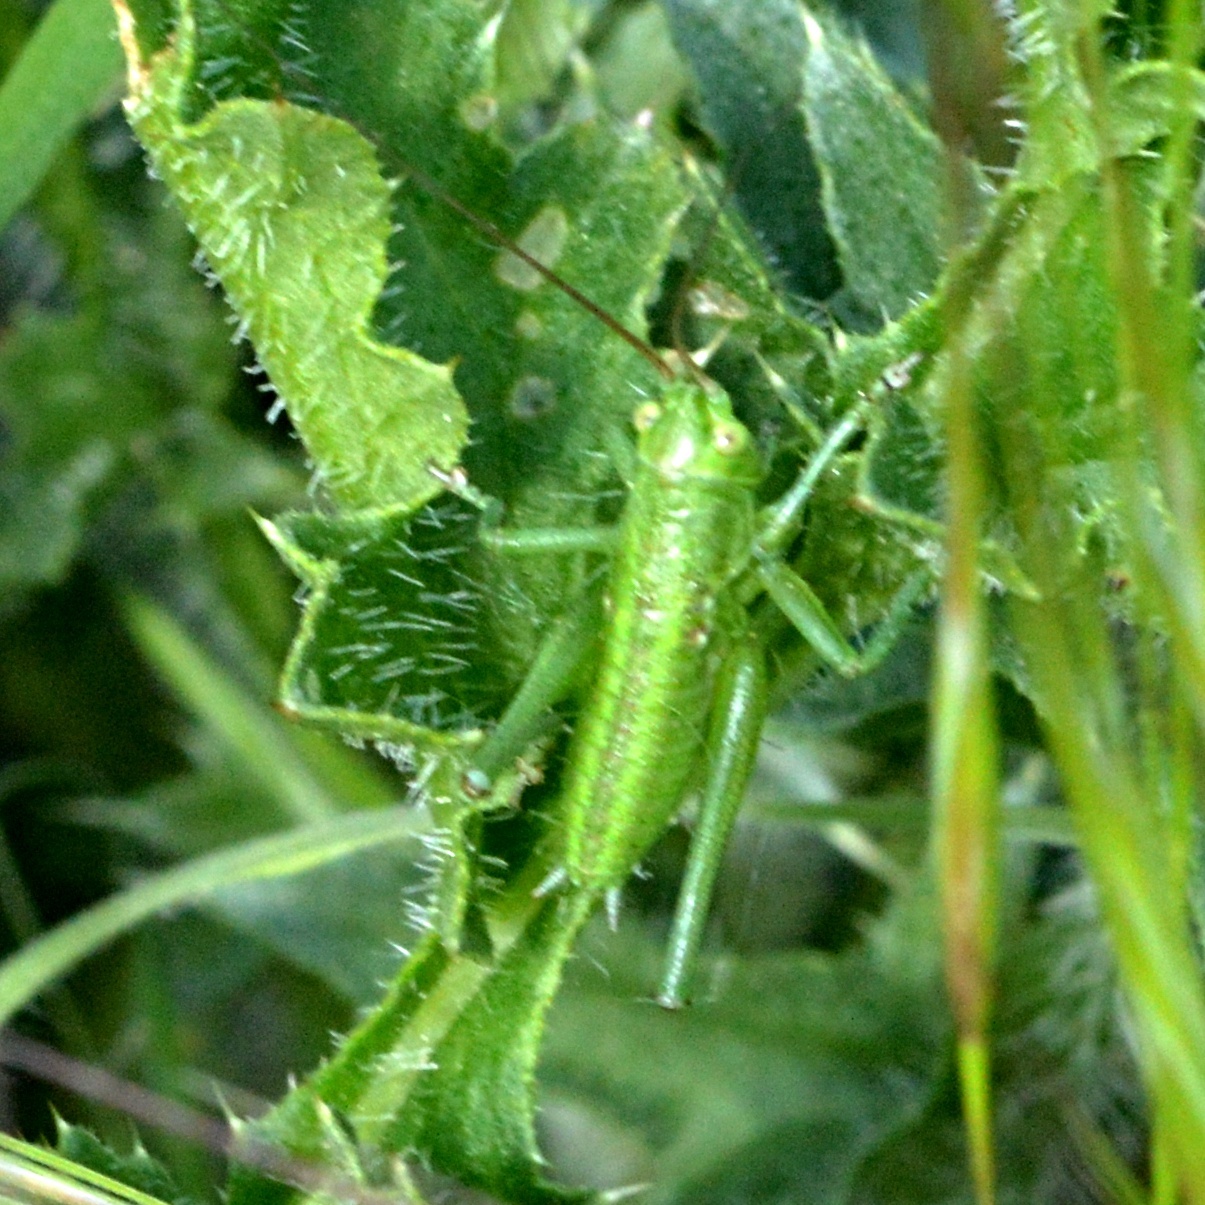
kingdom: Animalia
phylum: Arthropoda
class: Insecta
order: Orthoptera
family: Tettigoniidae
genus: Tettigonia
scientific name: Tettigonia viridissima
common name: Great green bush-cricket
